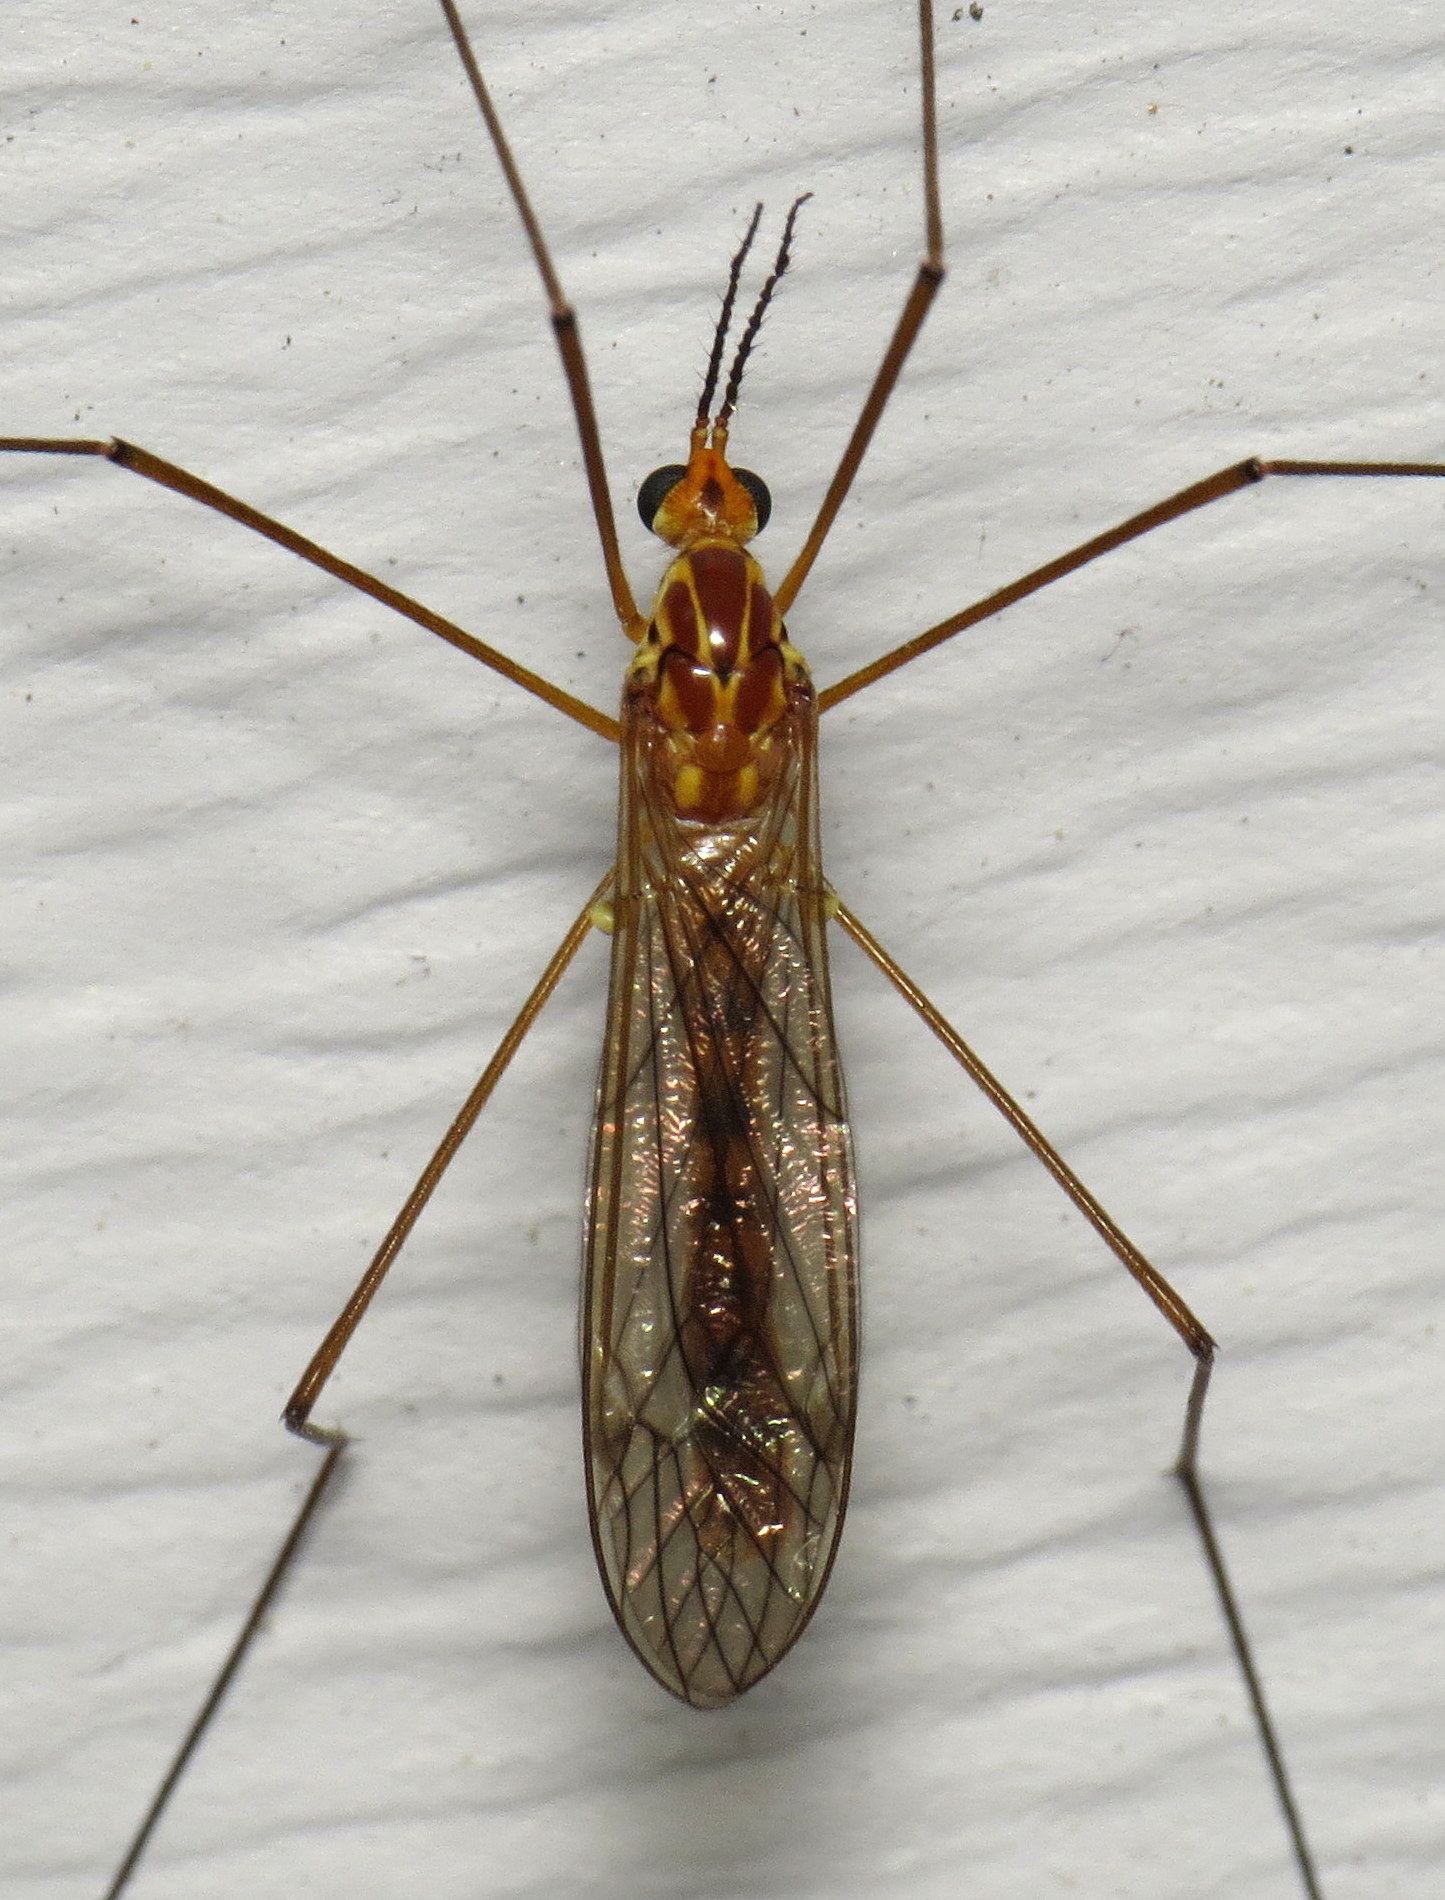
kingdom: Animalia
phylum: Arthropoda
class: Insecta
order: Diptera
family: Tipulidae
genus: Nephrotoma
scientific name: Nephrotoma ferruginea
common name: Ferruginous tiger crane fly
